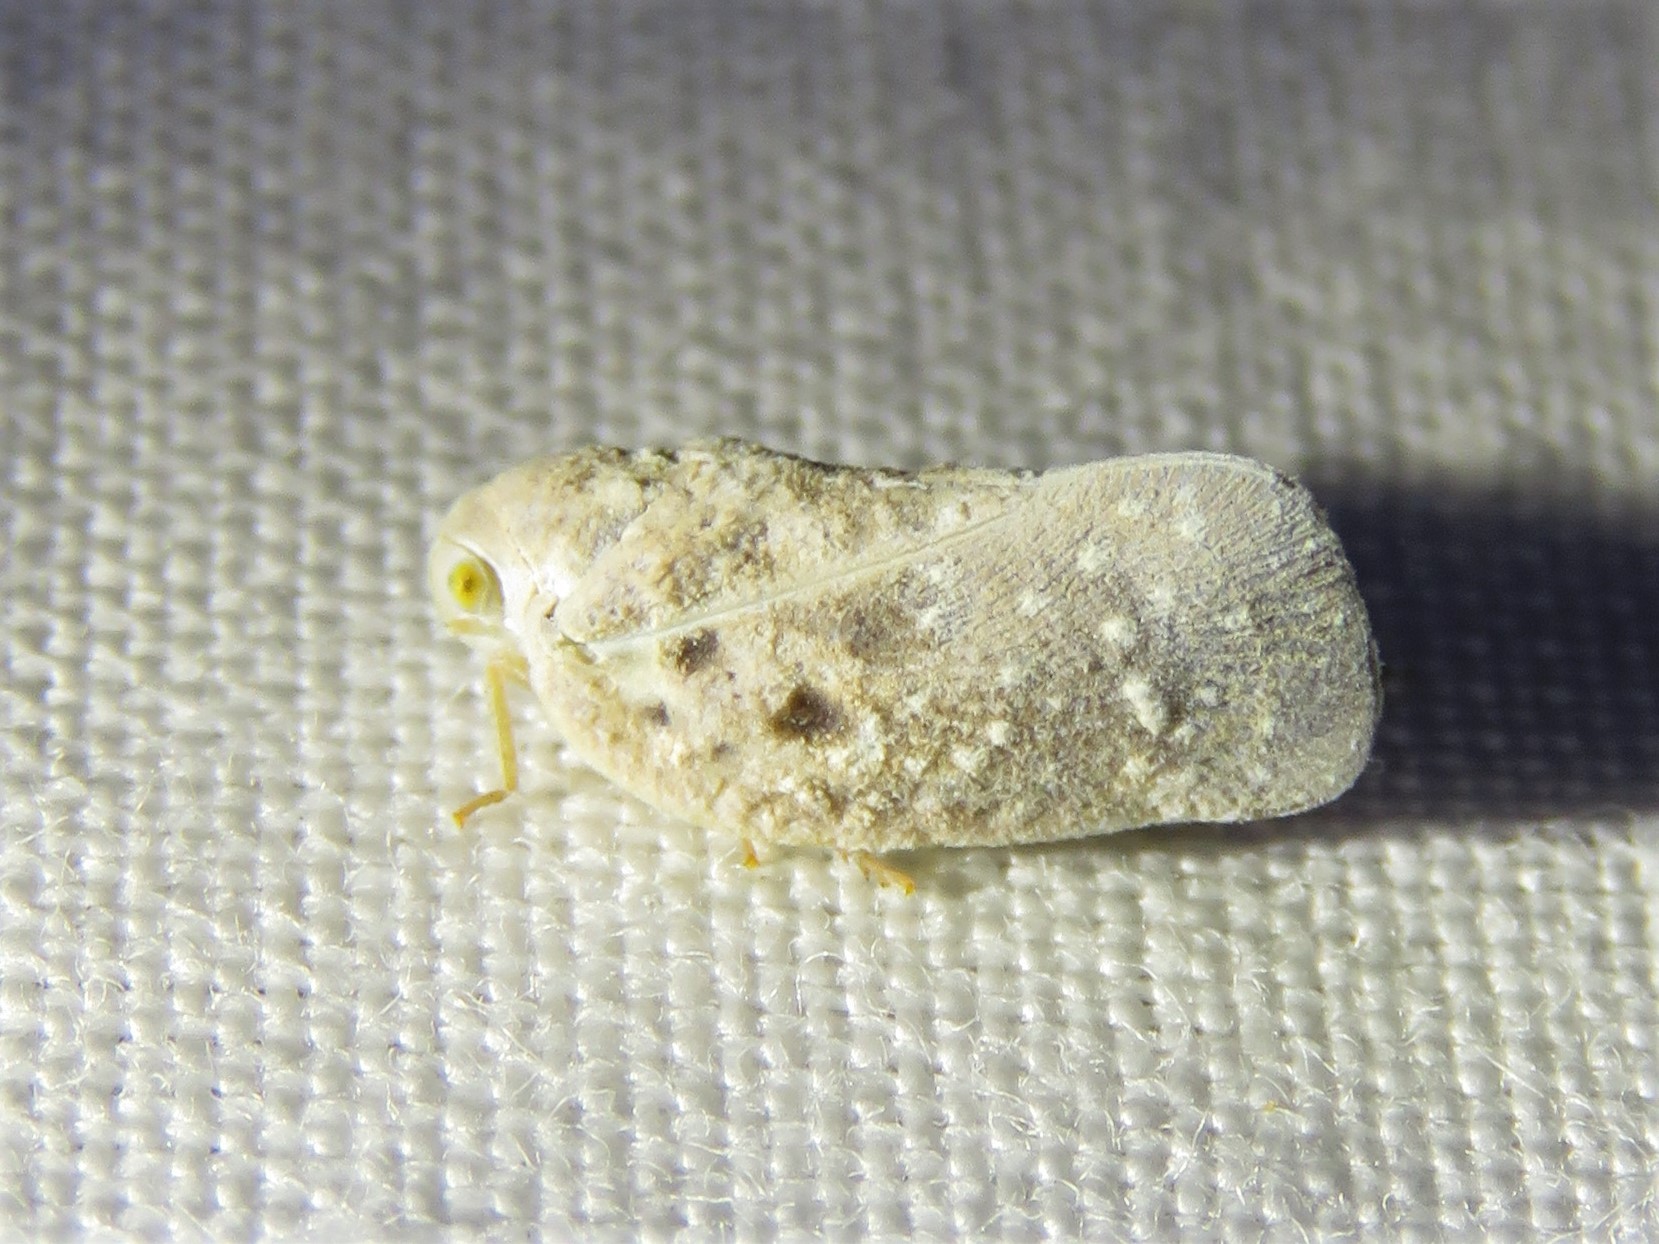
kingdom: Animalia
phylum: Arthropoda
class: Insecta
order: Hemiptera
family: Flatidae
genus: Metcalfa
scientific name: Metcalfa pruinosa
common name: Citrus flatid planthopper
